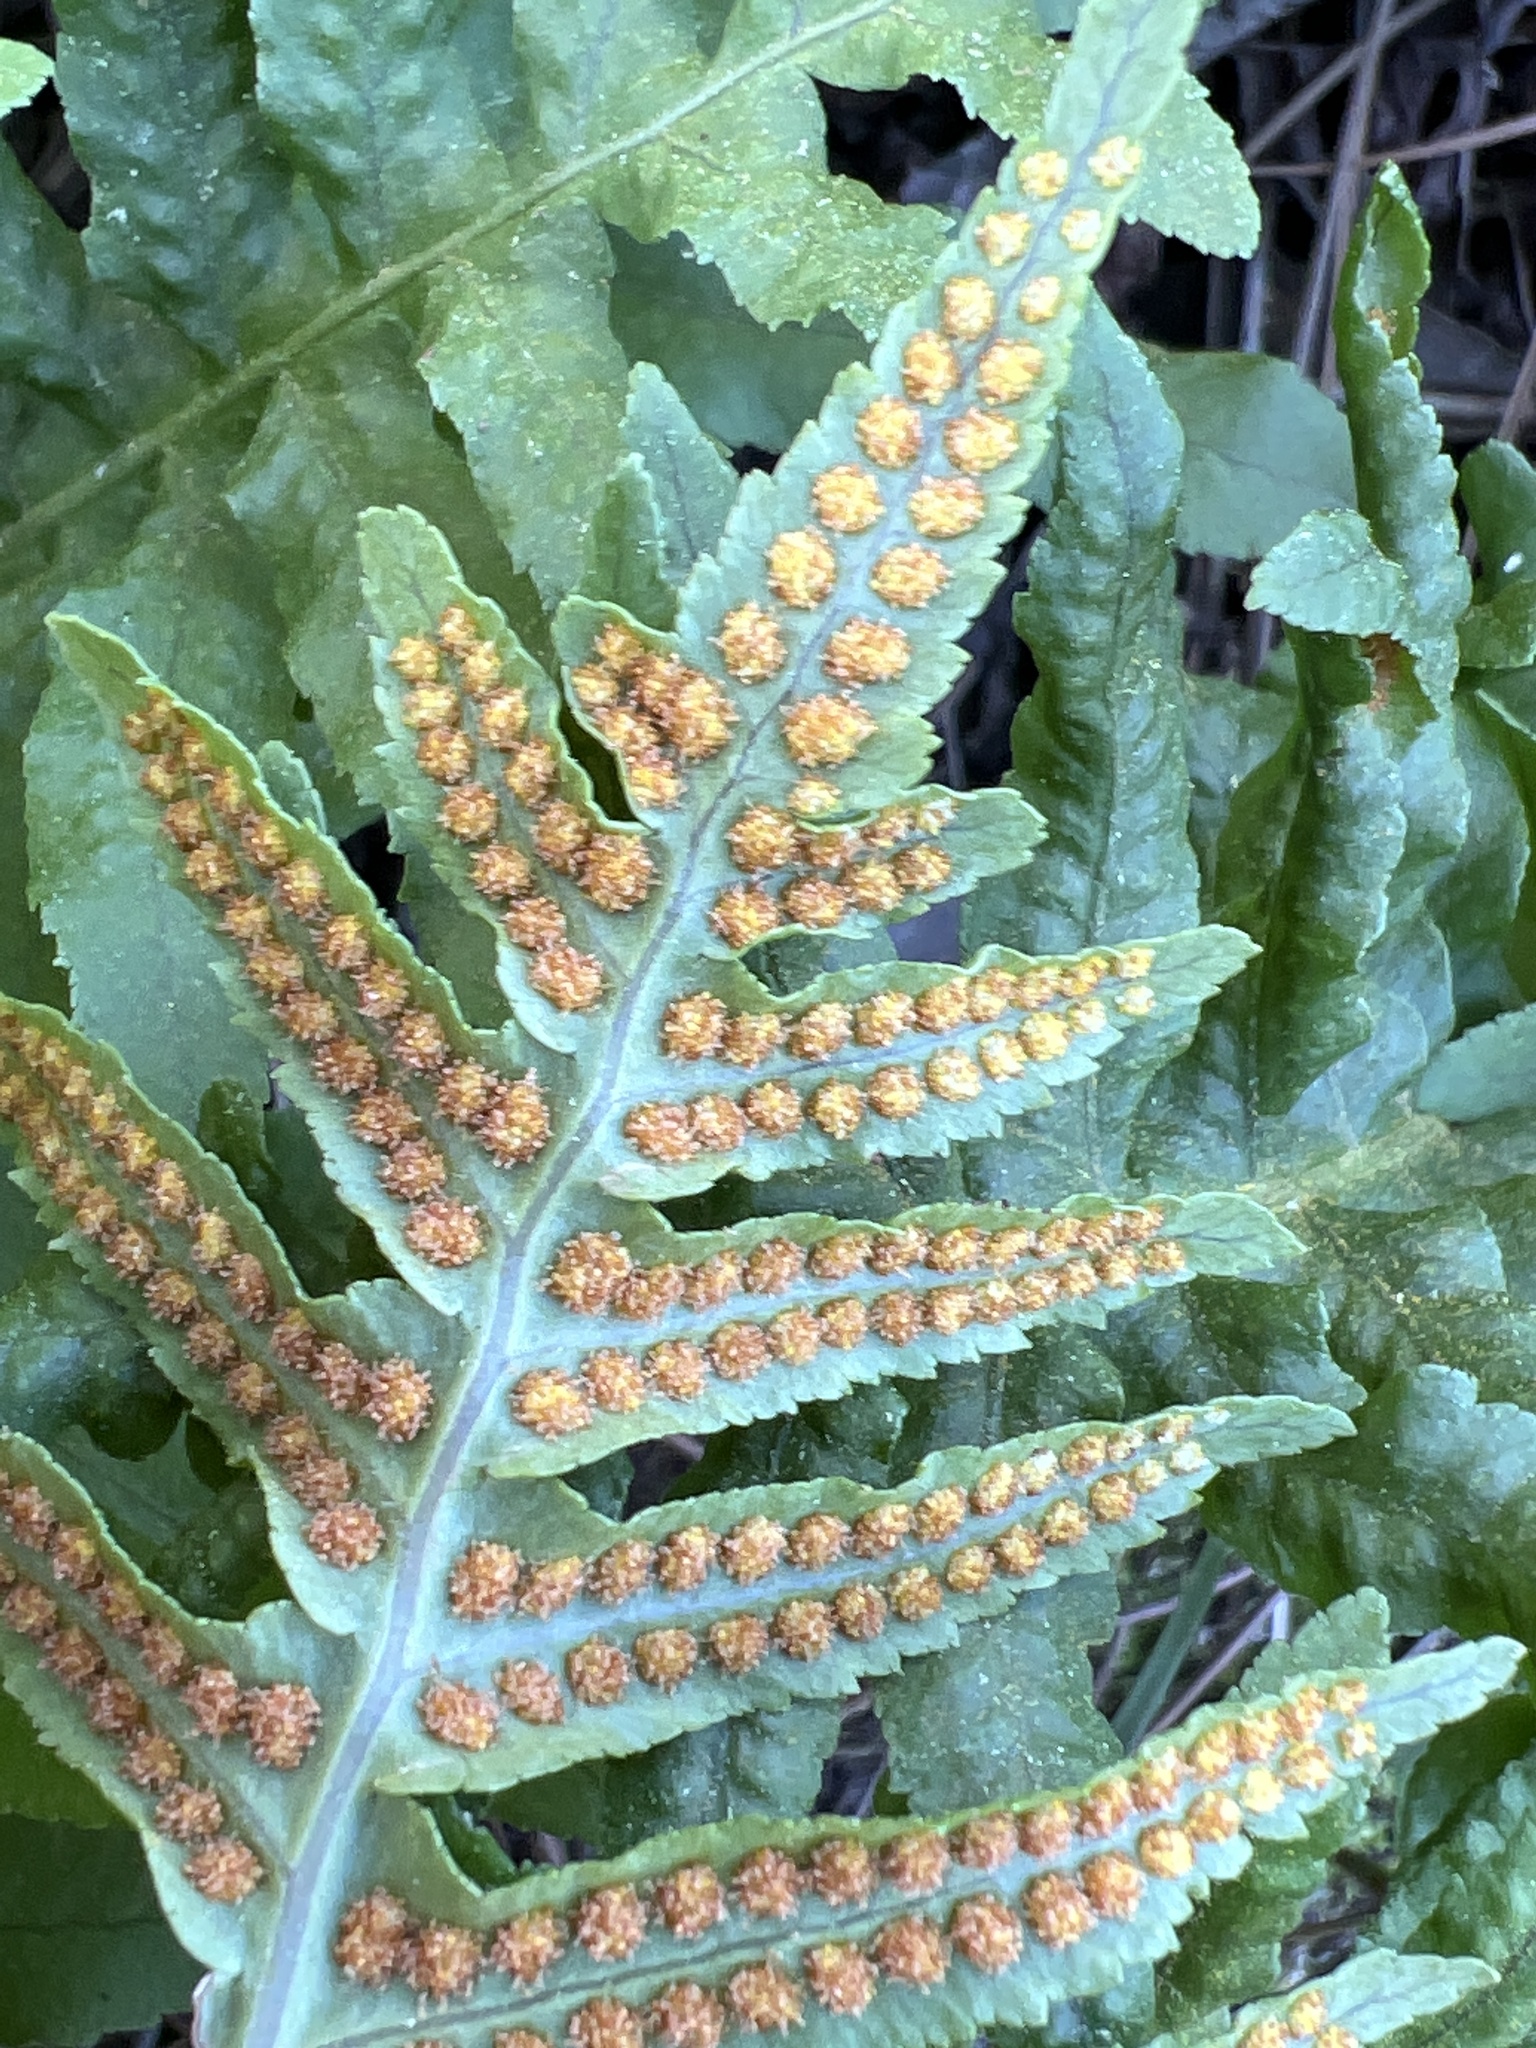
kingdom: Plantae
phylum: Tracheophyta
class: Polypodiopsida
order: Polypodiales
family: Polypodiaceae
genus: Polypodium
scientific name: Polypodium californicum
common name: California polypody
